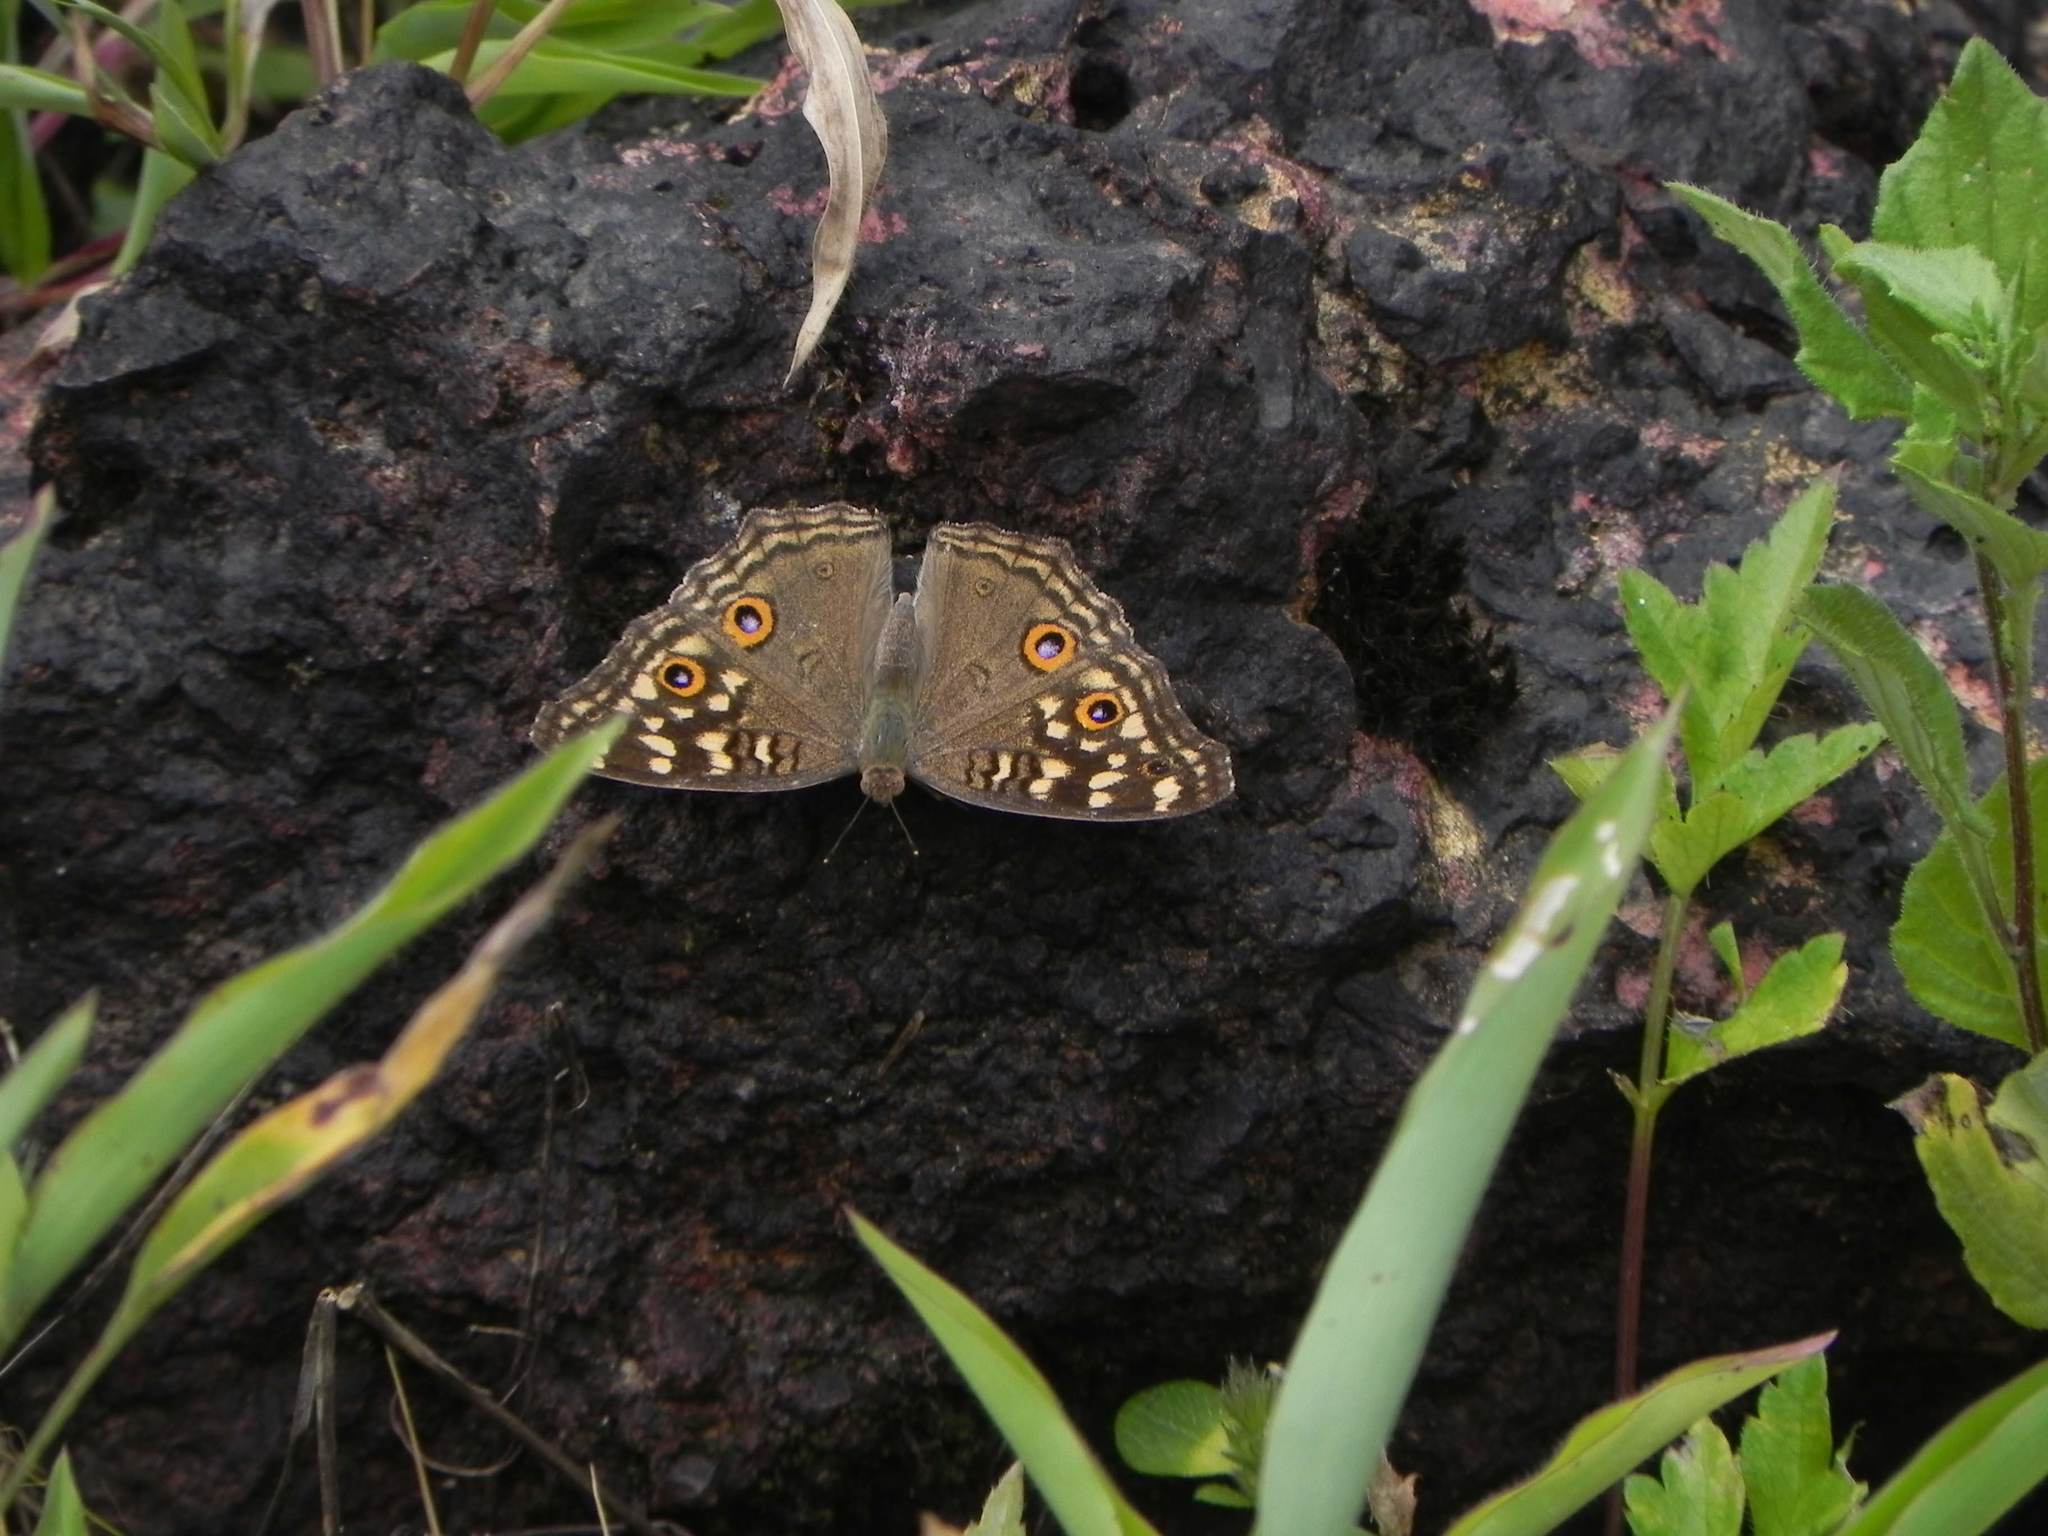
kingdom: Animalia
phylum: Arthropoda
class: Insecta
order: Lepidoptera
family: Nymphalidae
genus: Junonia
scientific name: Junonia lemonias
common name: Lemon pansy
